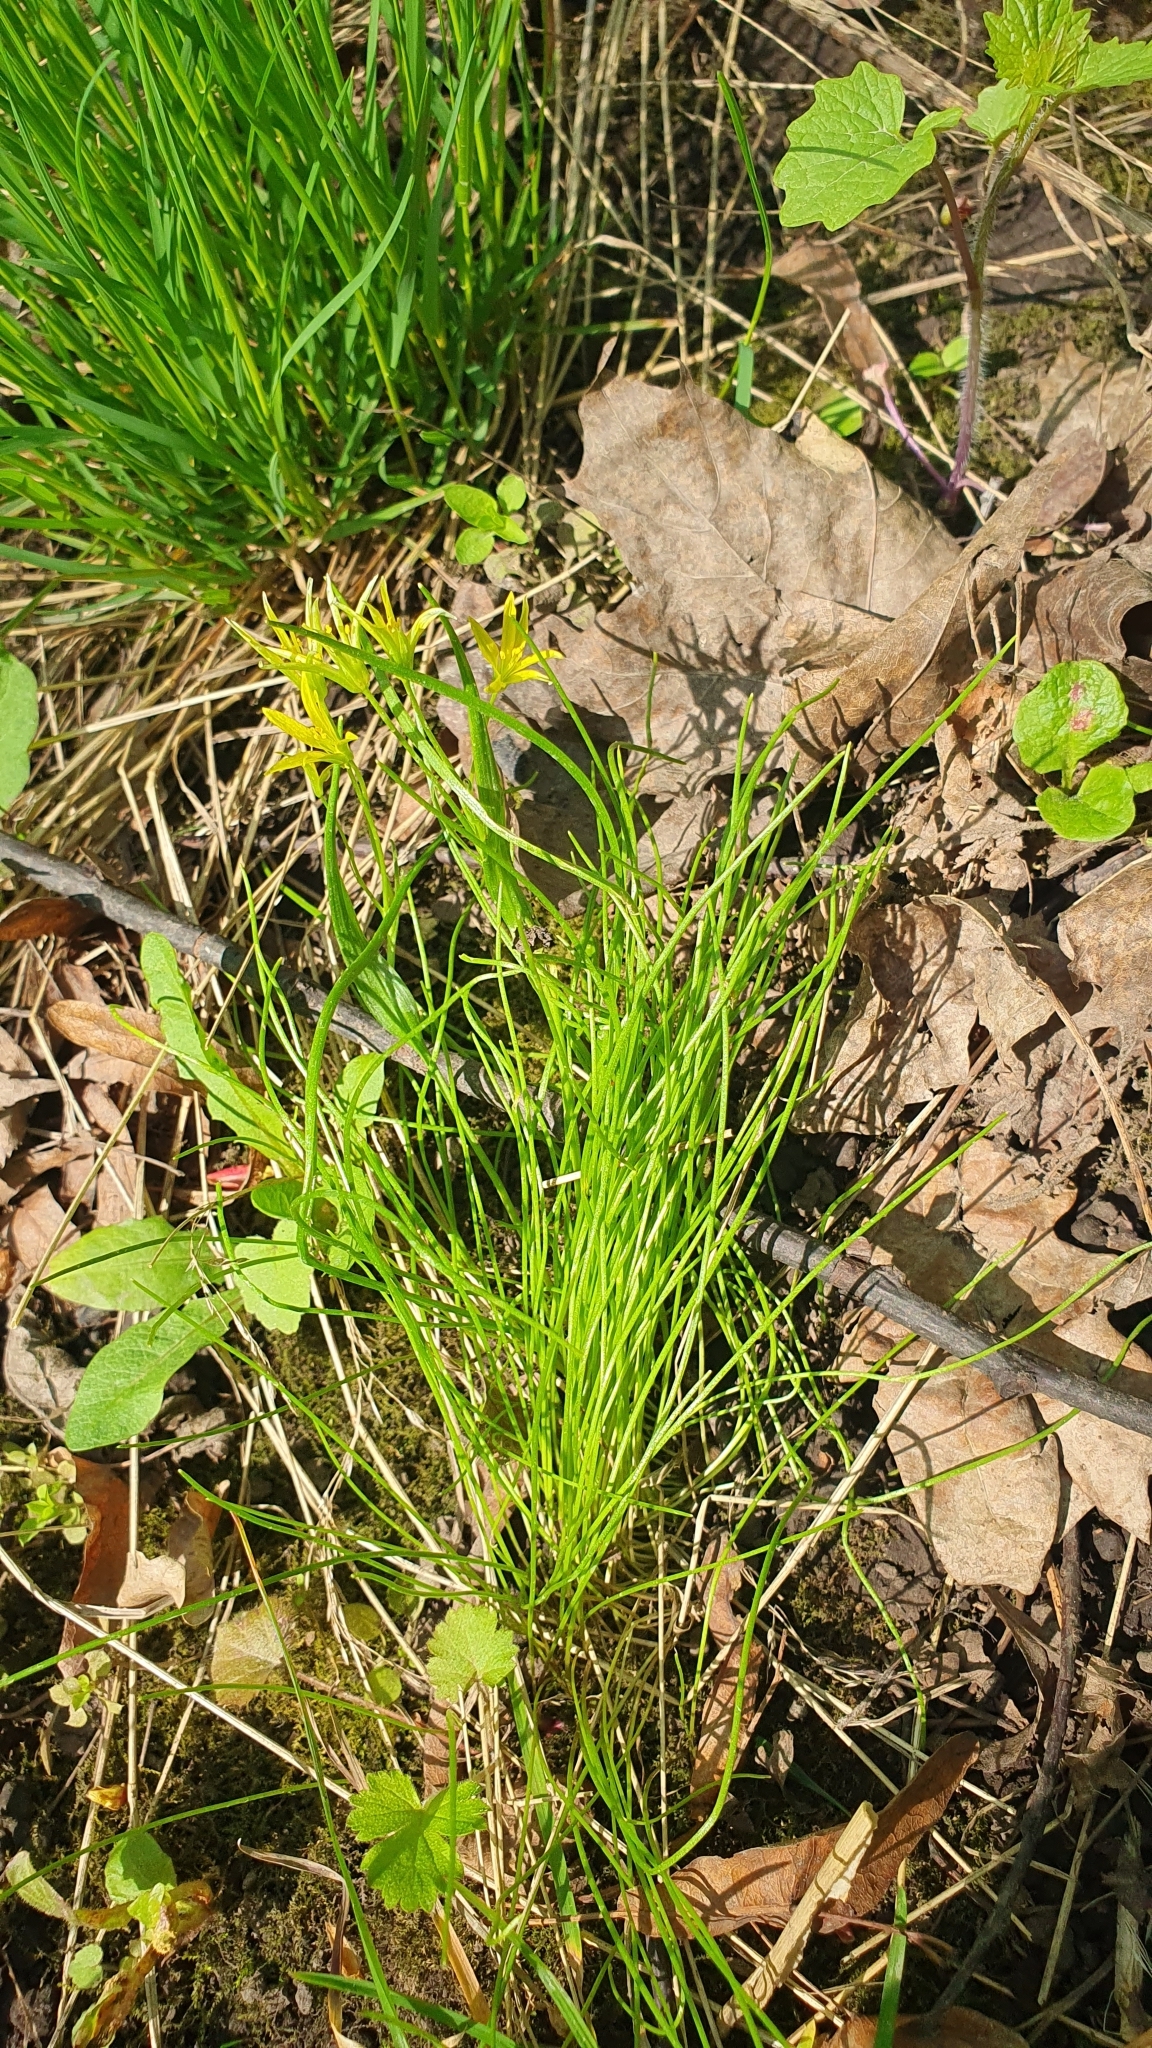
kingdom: Plantae
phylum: Tracheophyta
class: Liliopsida
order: Liliales
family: Liliaceae
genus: Gagea
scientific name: Gagea minima
